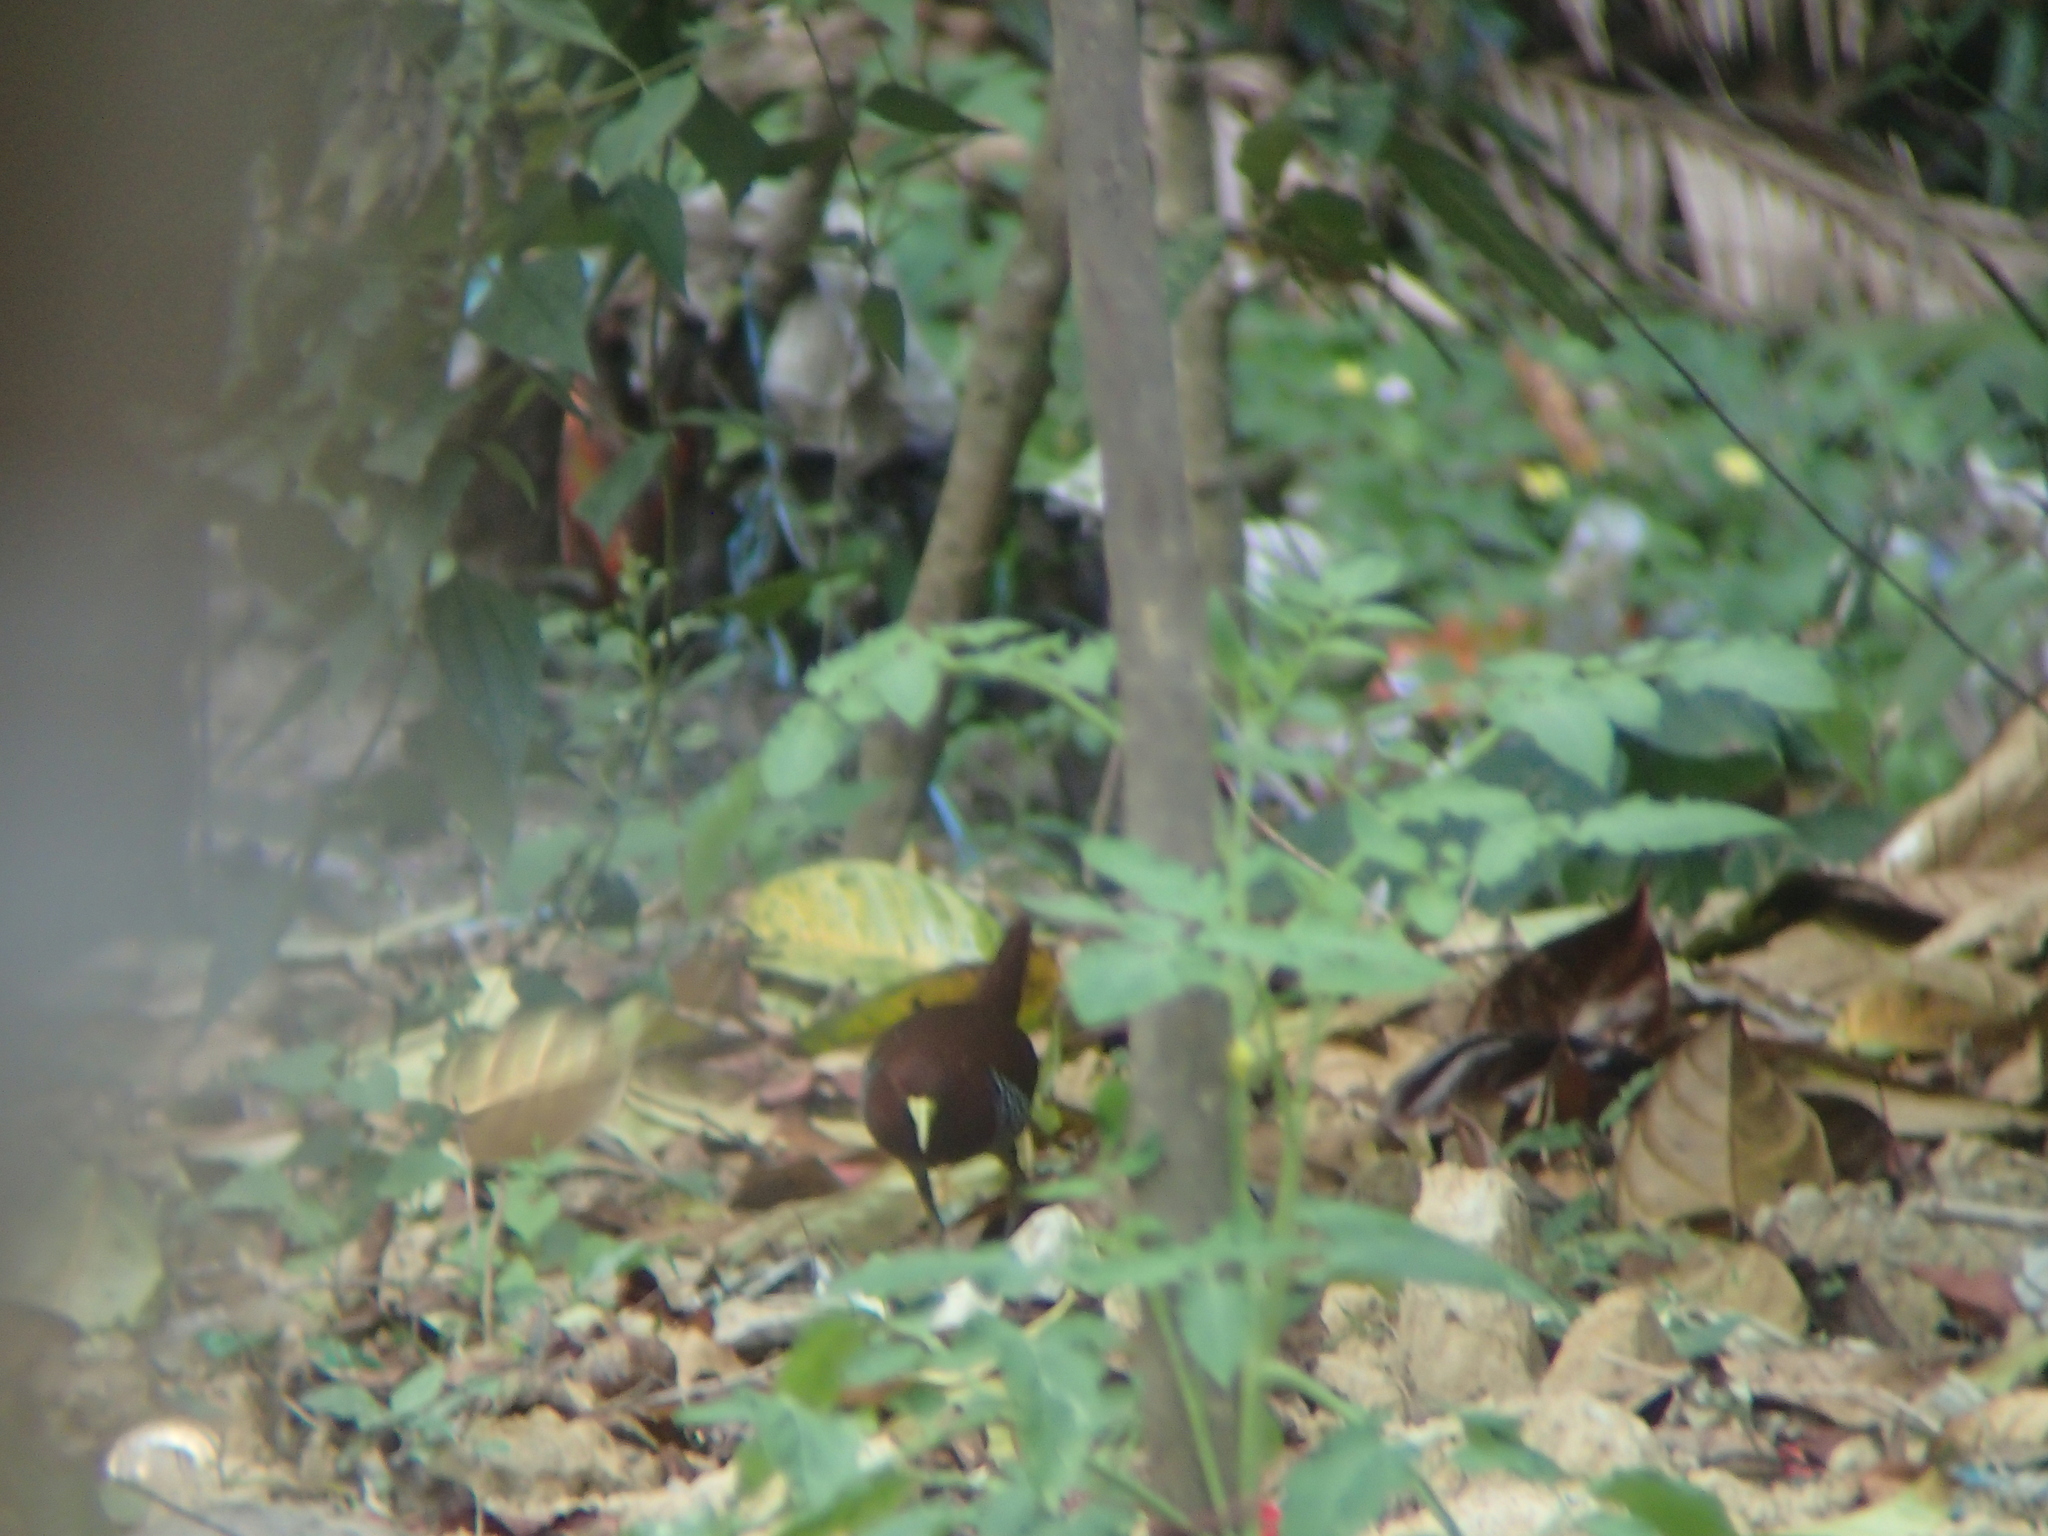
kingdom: Animalia
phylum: Chordata
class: Aves
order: Gruiformes
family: Rallidae
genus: Rallina
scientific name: Rallina canningi
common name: Andaman crake
